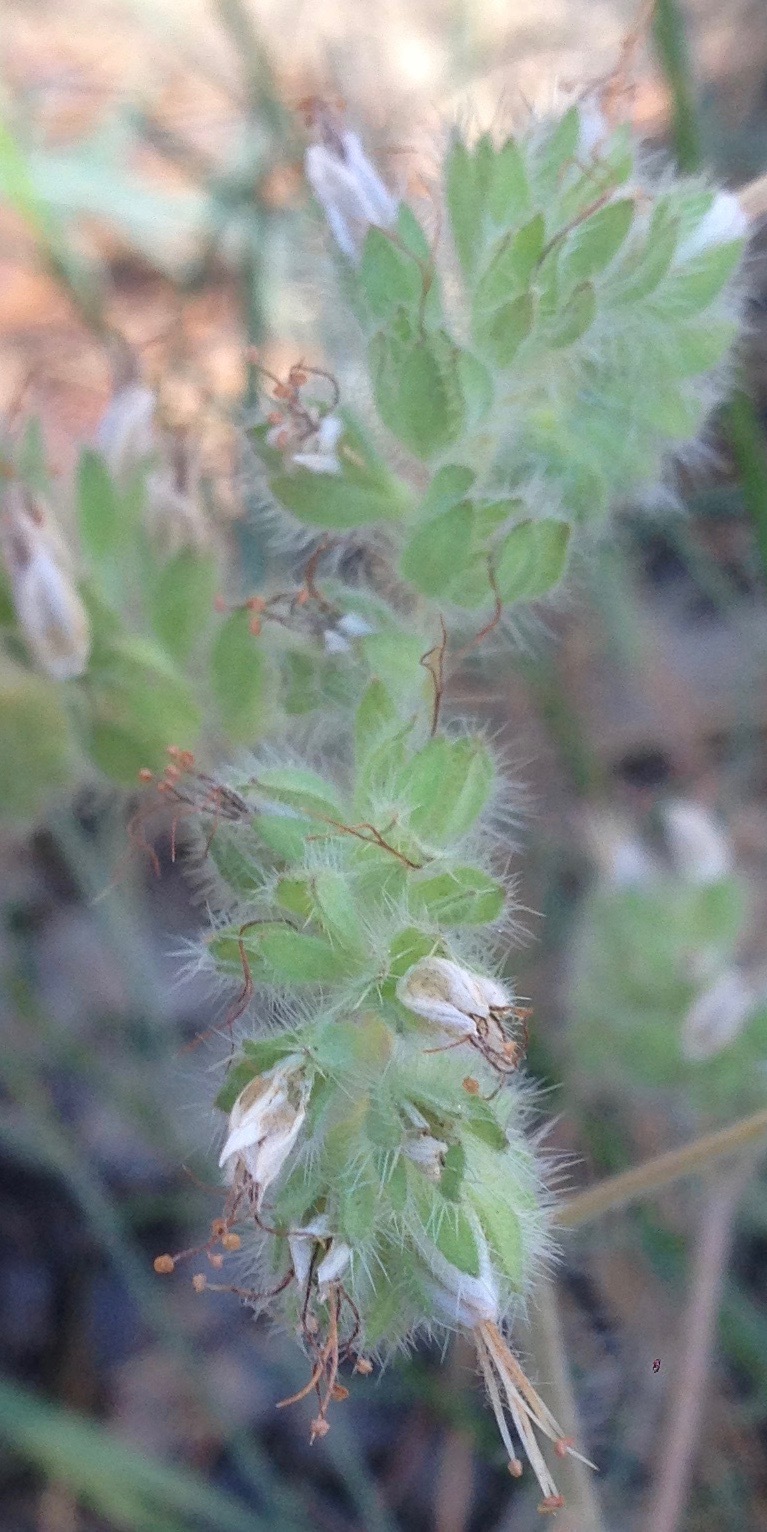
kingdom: Plantae
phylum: Tracheophyta
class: Magnoliopsida
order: Boraginales
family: Hydrophyllaceae
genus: Phacelia
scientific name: Phacelia imbricata
